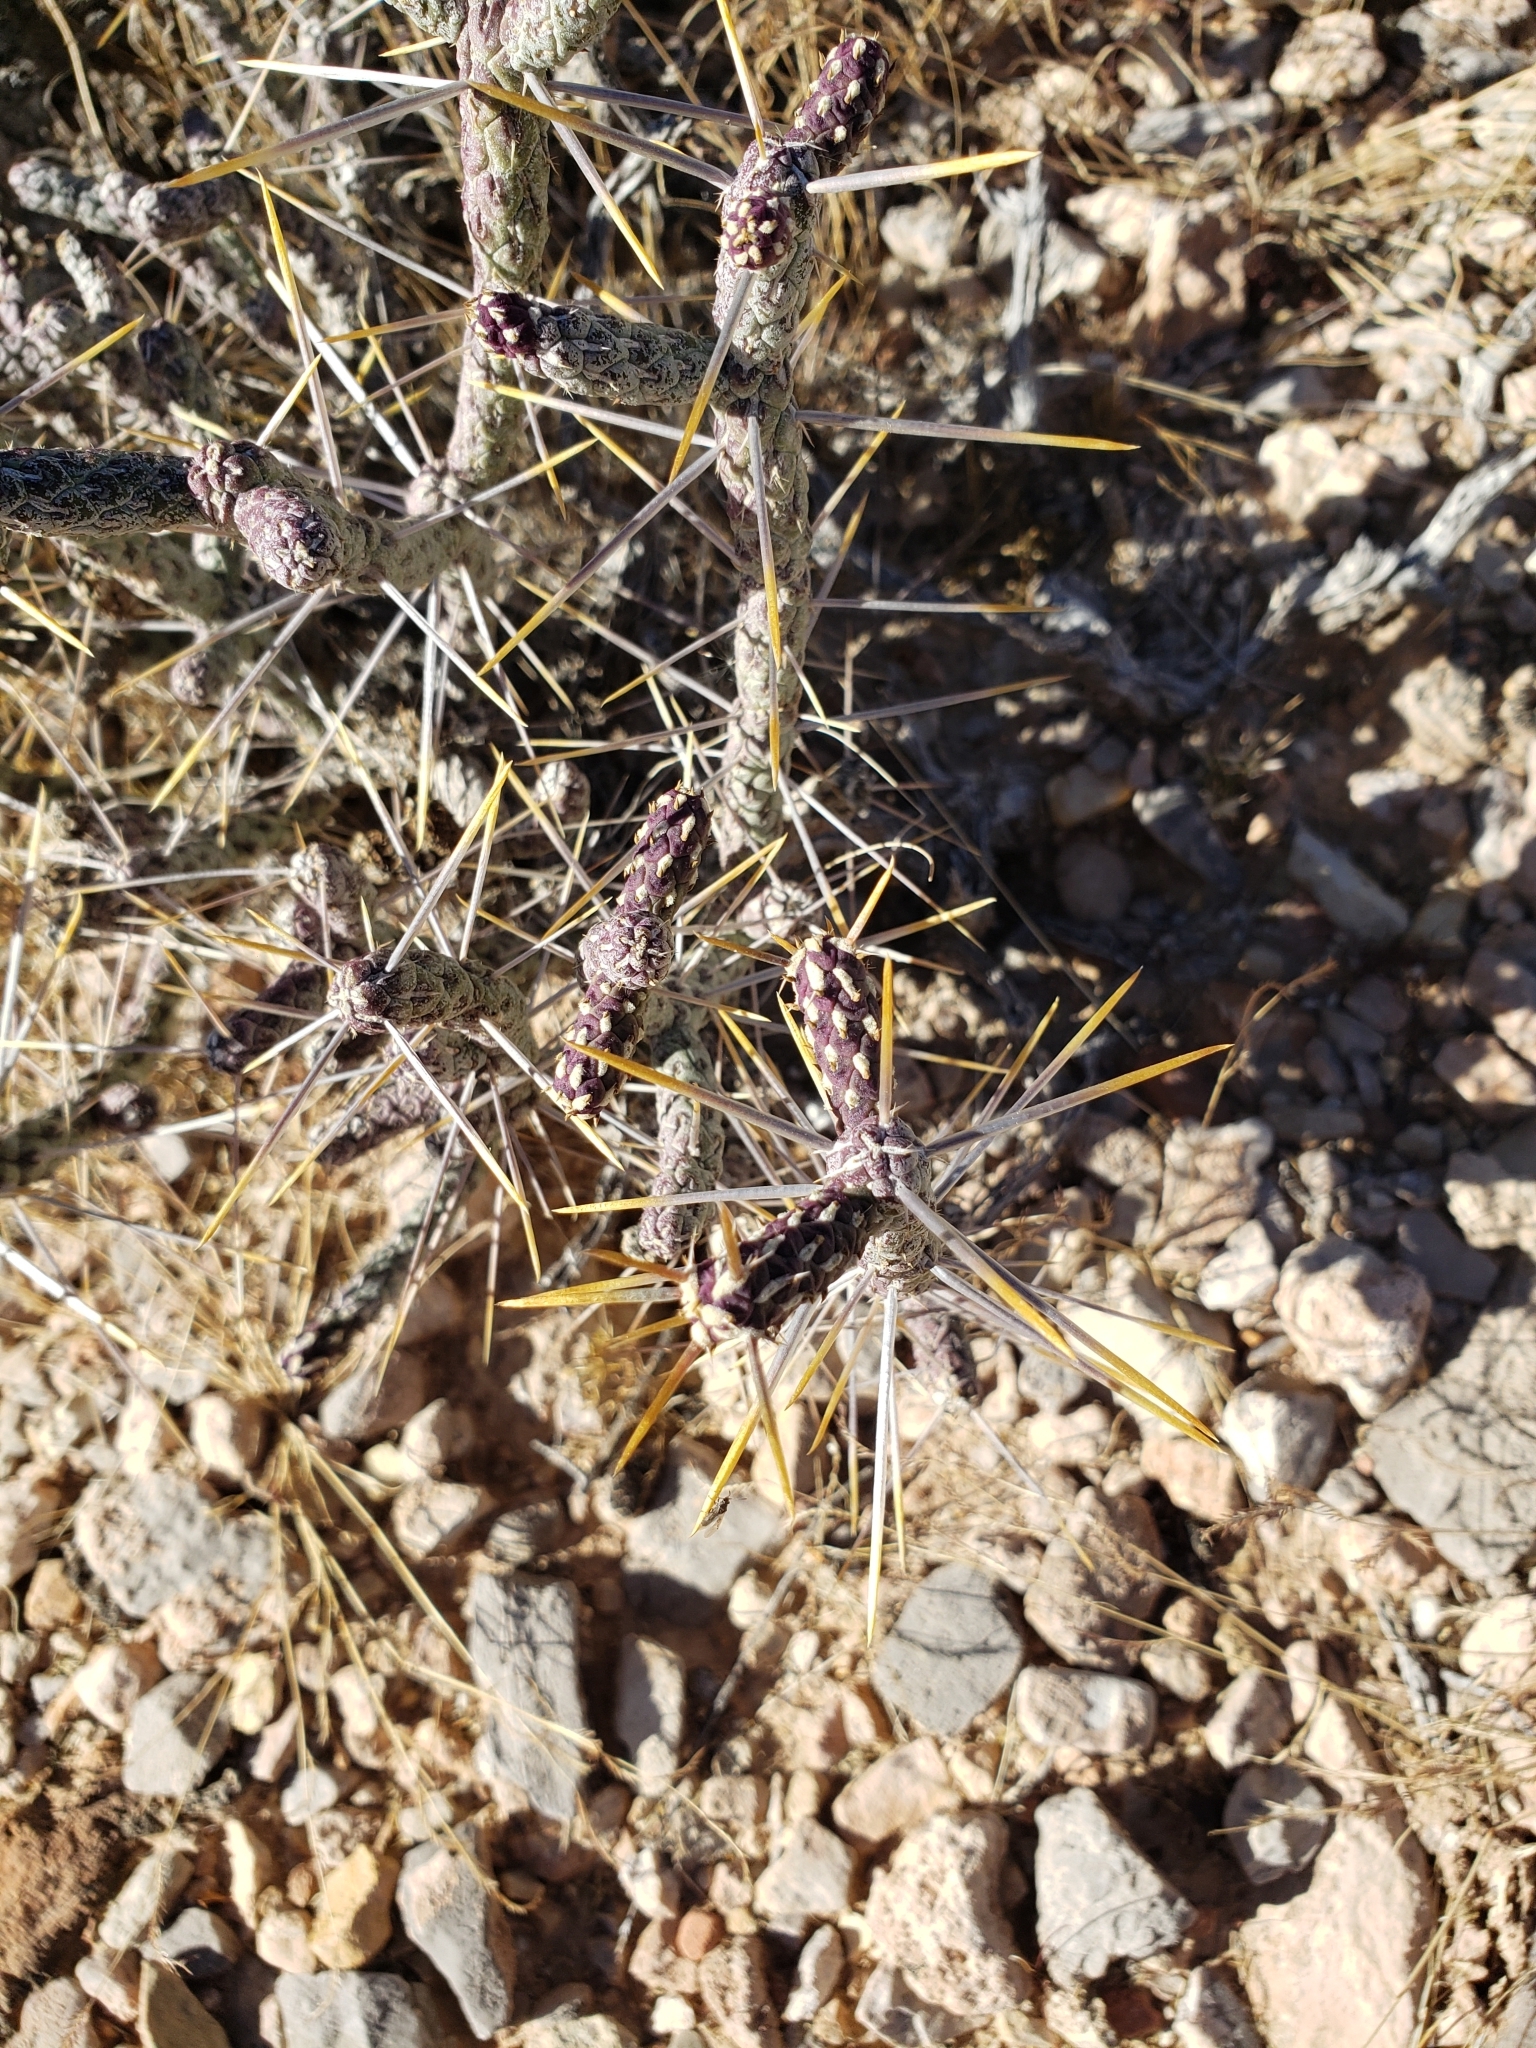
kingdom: Plantae
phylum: Tracheophyta
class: Magnoliopsida
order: Caryophyllales
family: Cactaceae
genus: Cylindropuntia
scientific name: Cylindropuntia ramosissima
